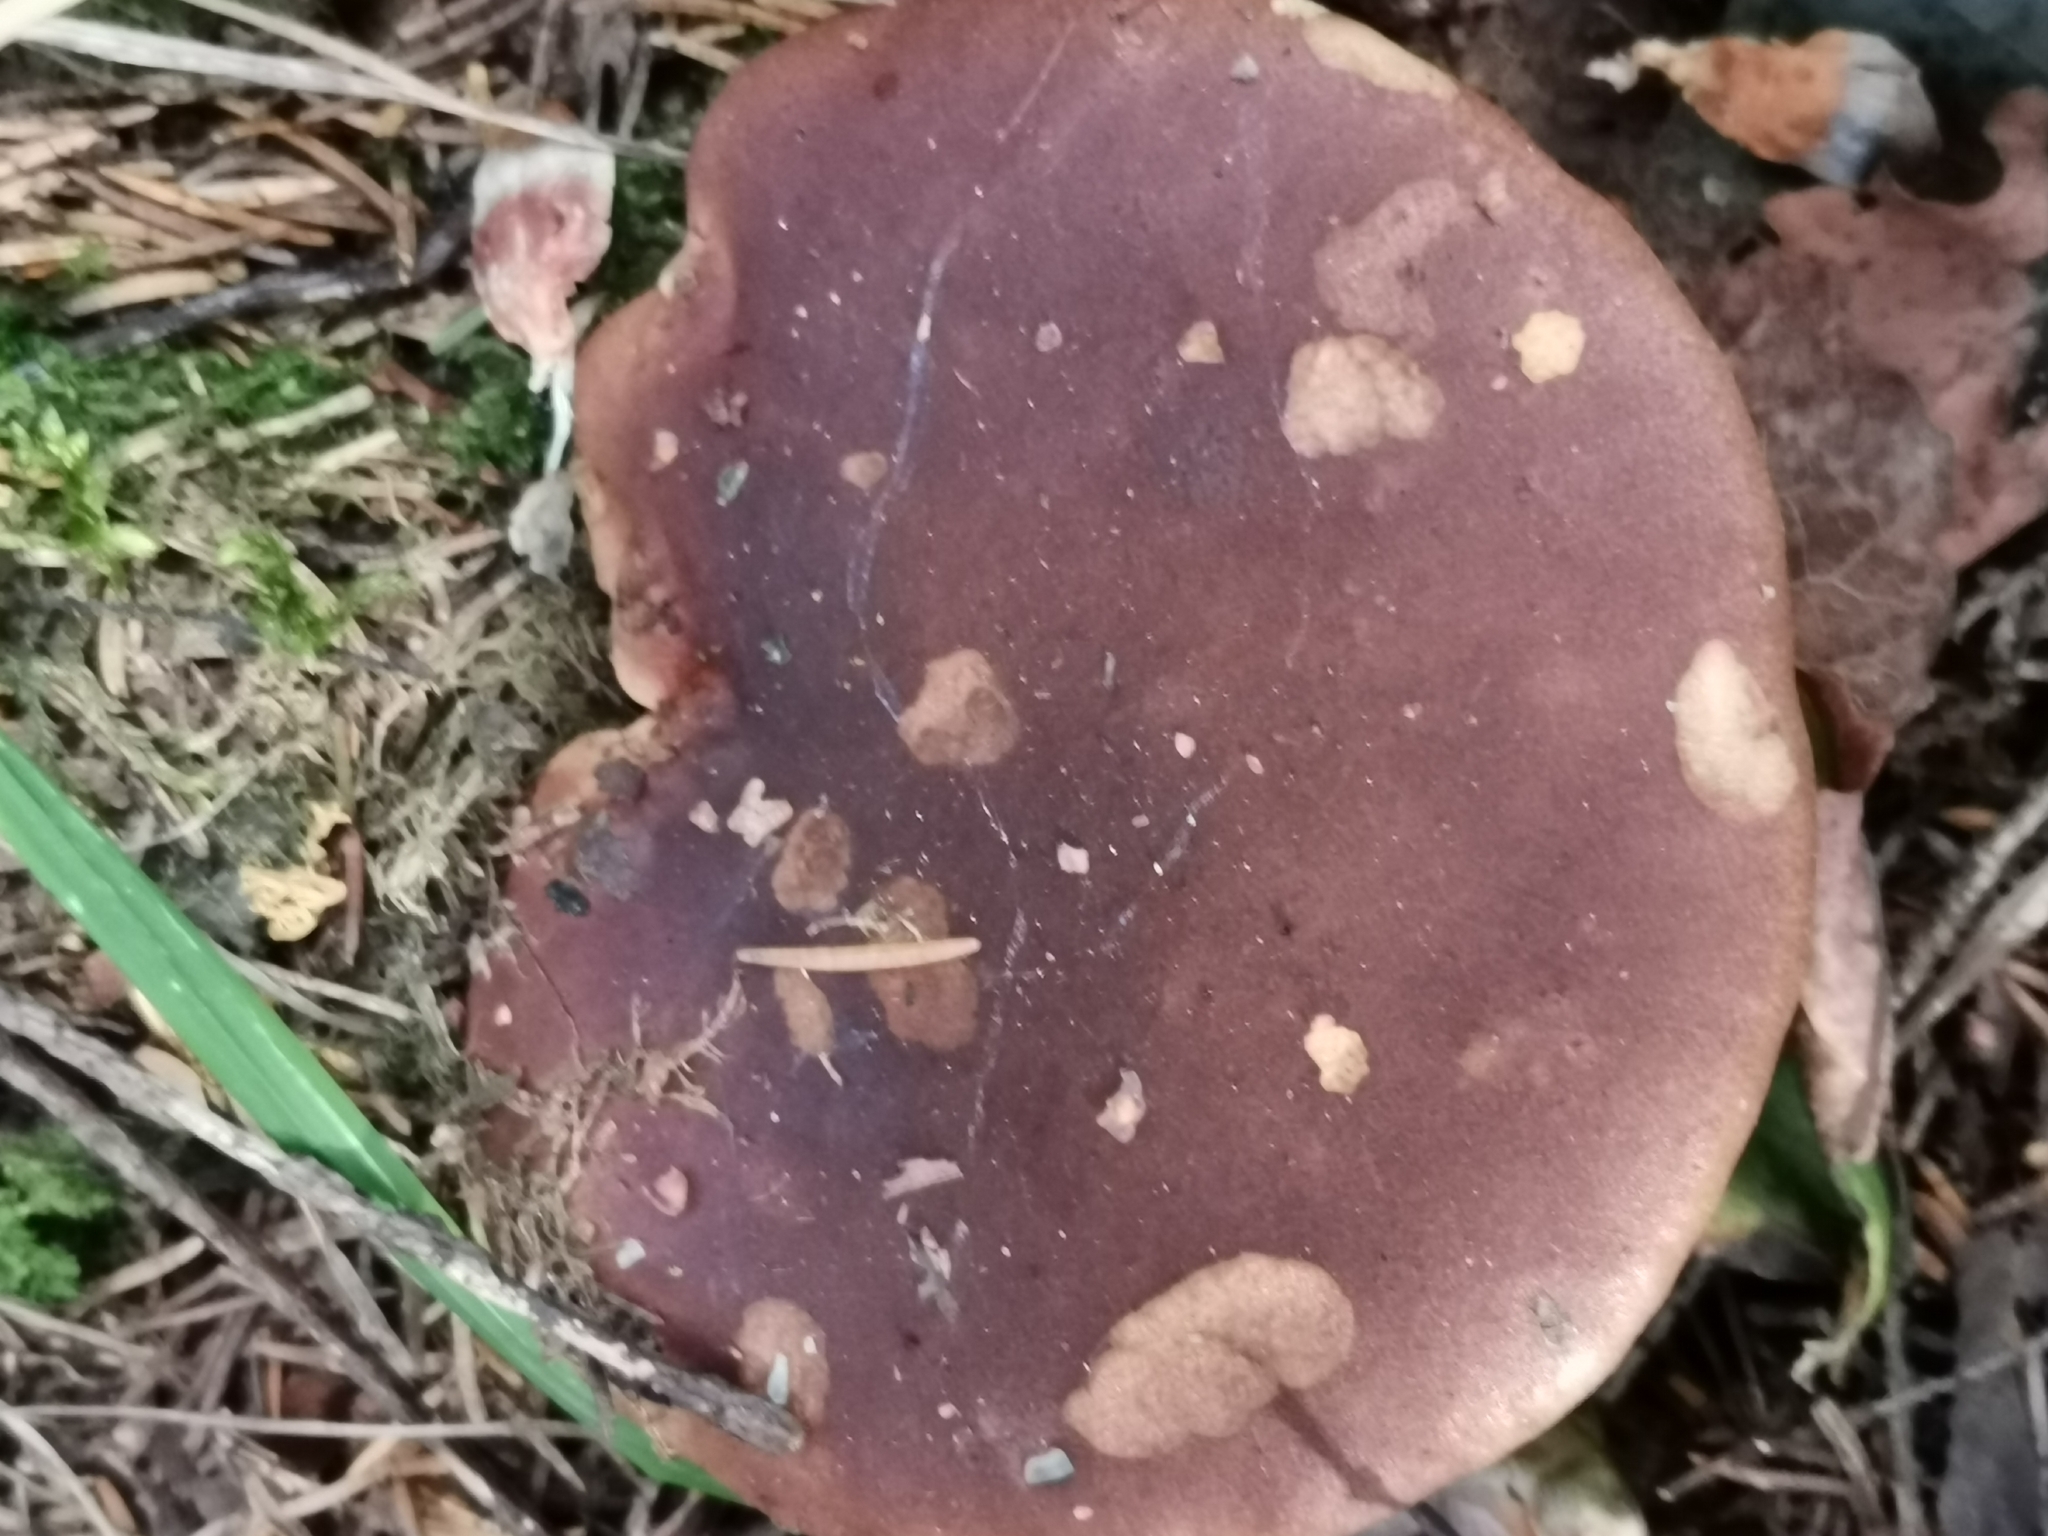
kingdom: Fungi
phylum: Basidiomycota
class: Agaricomycetes
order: Boletales
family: Boletaceae
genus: Imleria
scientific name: Imleria badia
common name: Bay bolete
